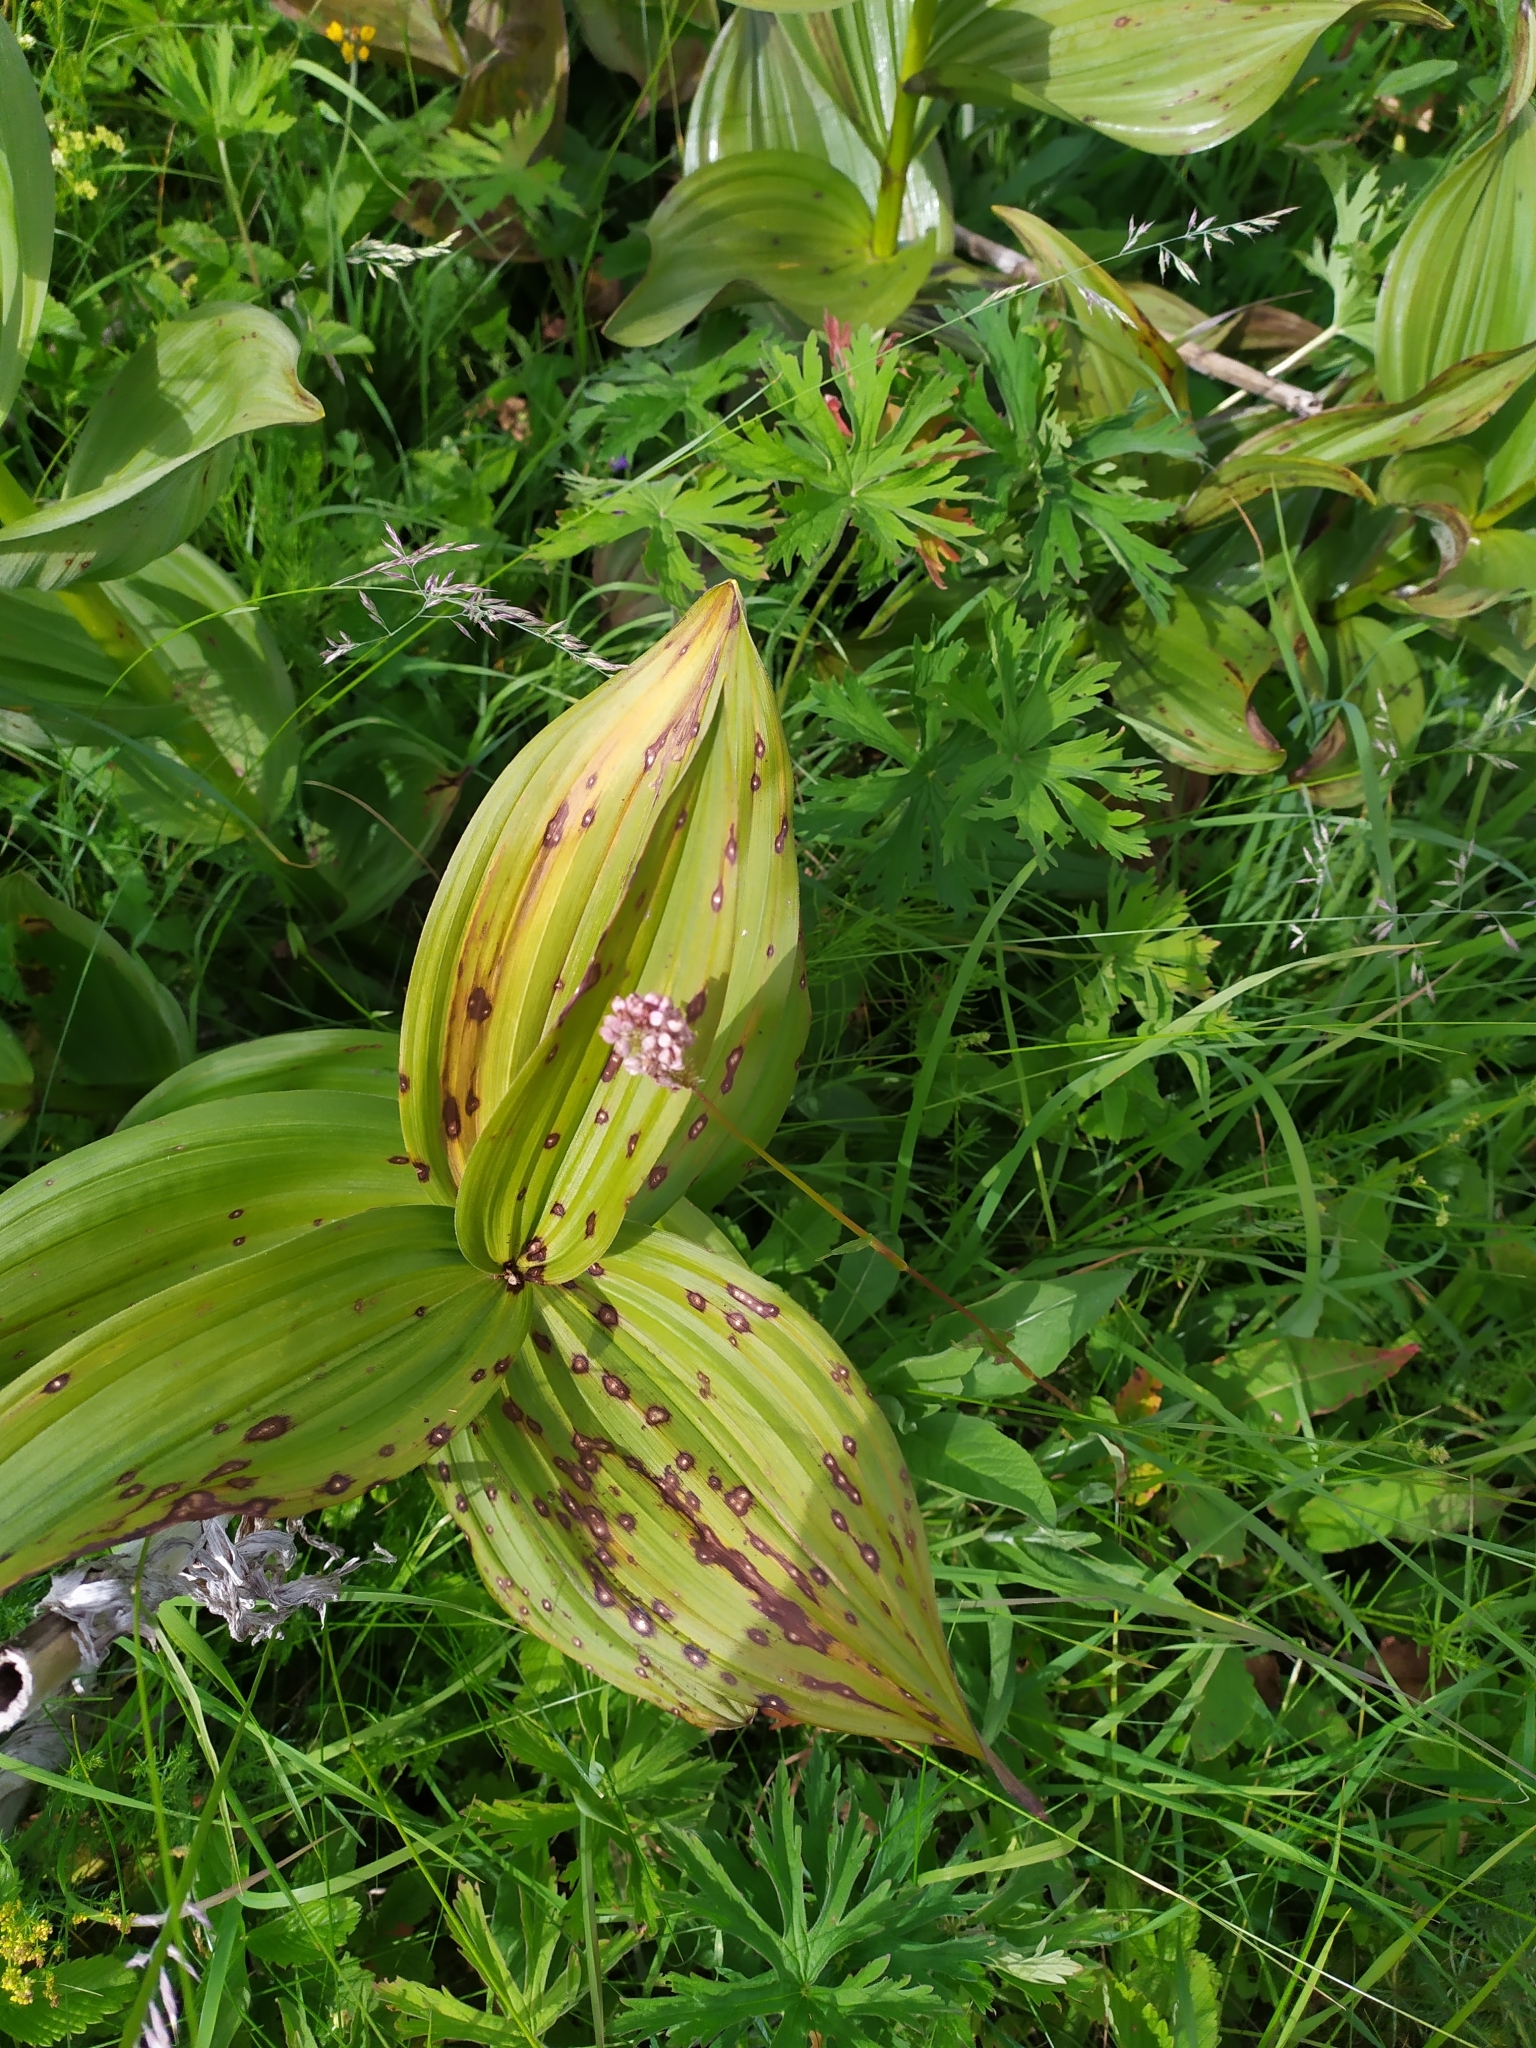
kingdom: Plantae
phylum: Tracheophyta
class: Liliopsida
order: Liliales
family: Melanthiaceae
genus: Veratrum
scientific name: Veratrum lobelianum
